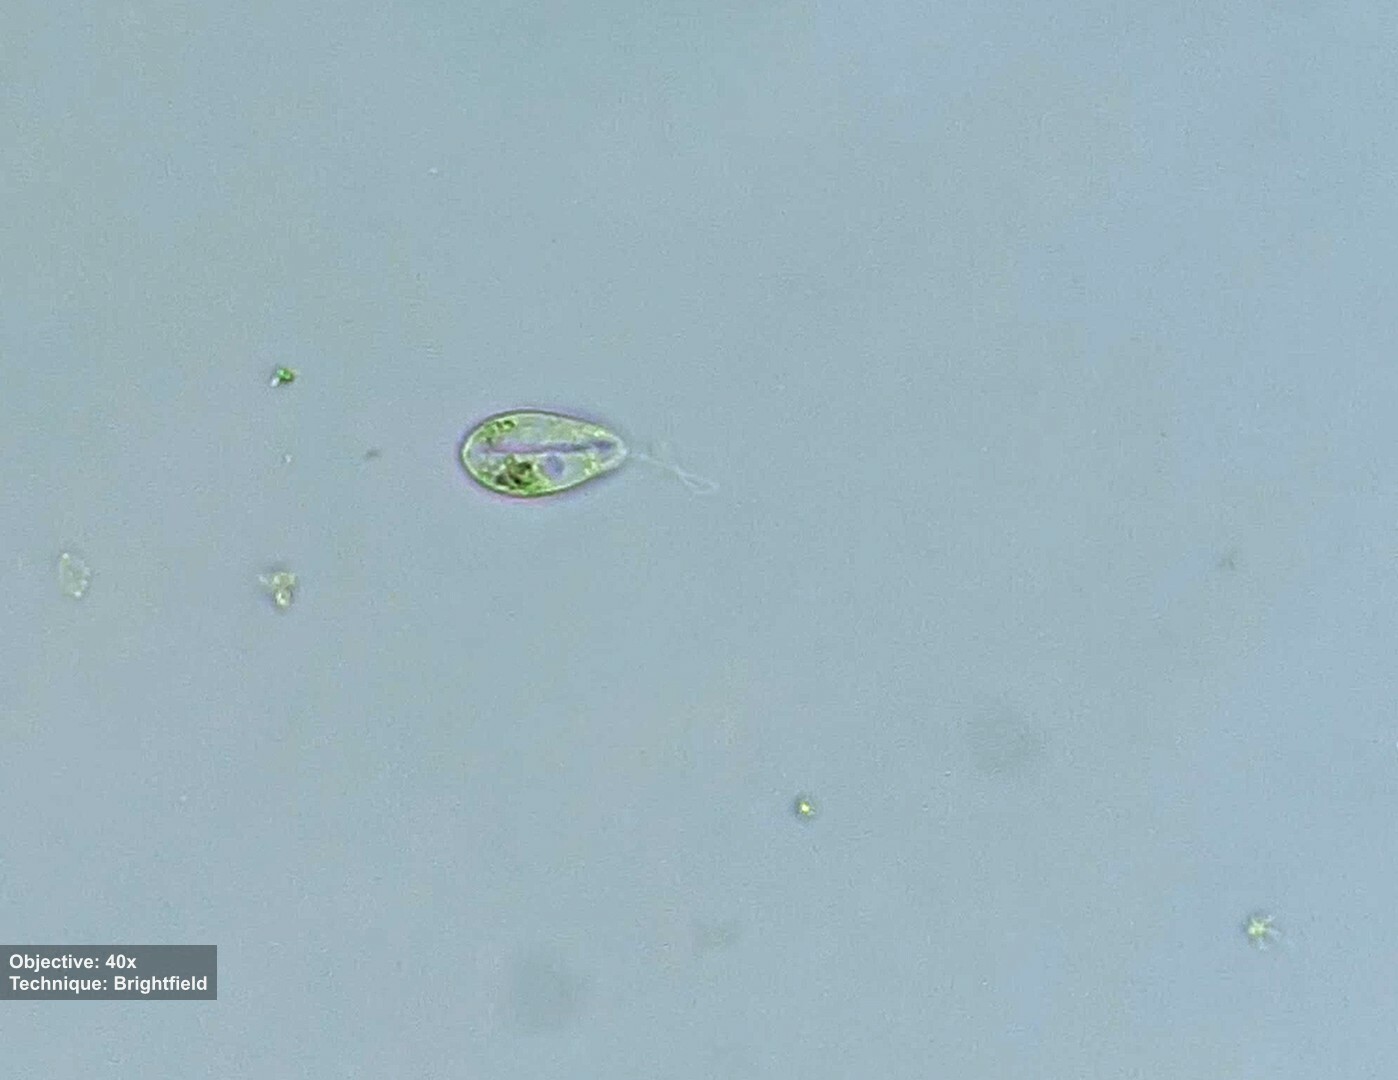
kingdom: Protozoa
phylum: Euglenozoa
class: Euglenoidea
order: Petalomonadida
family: Scytomonadidae
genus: Notosolenus
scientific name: Notosolenus
